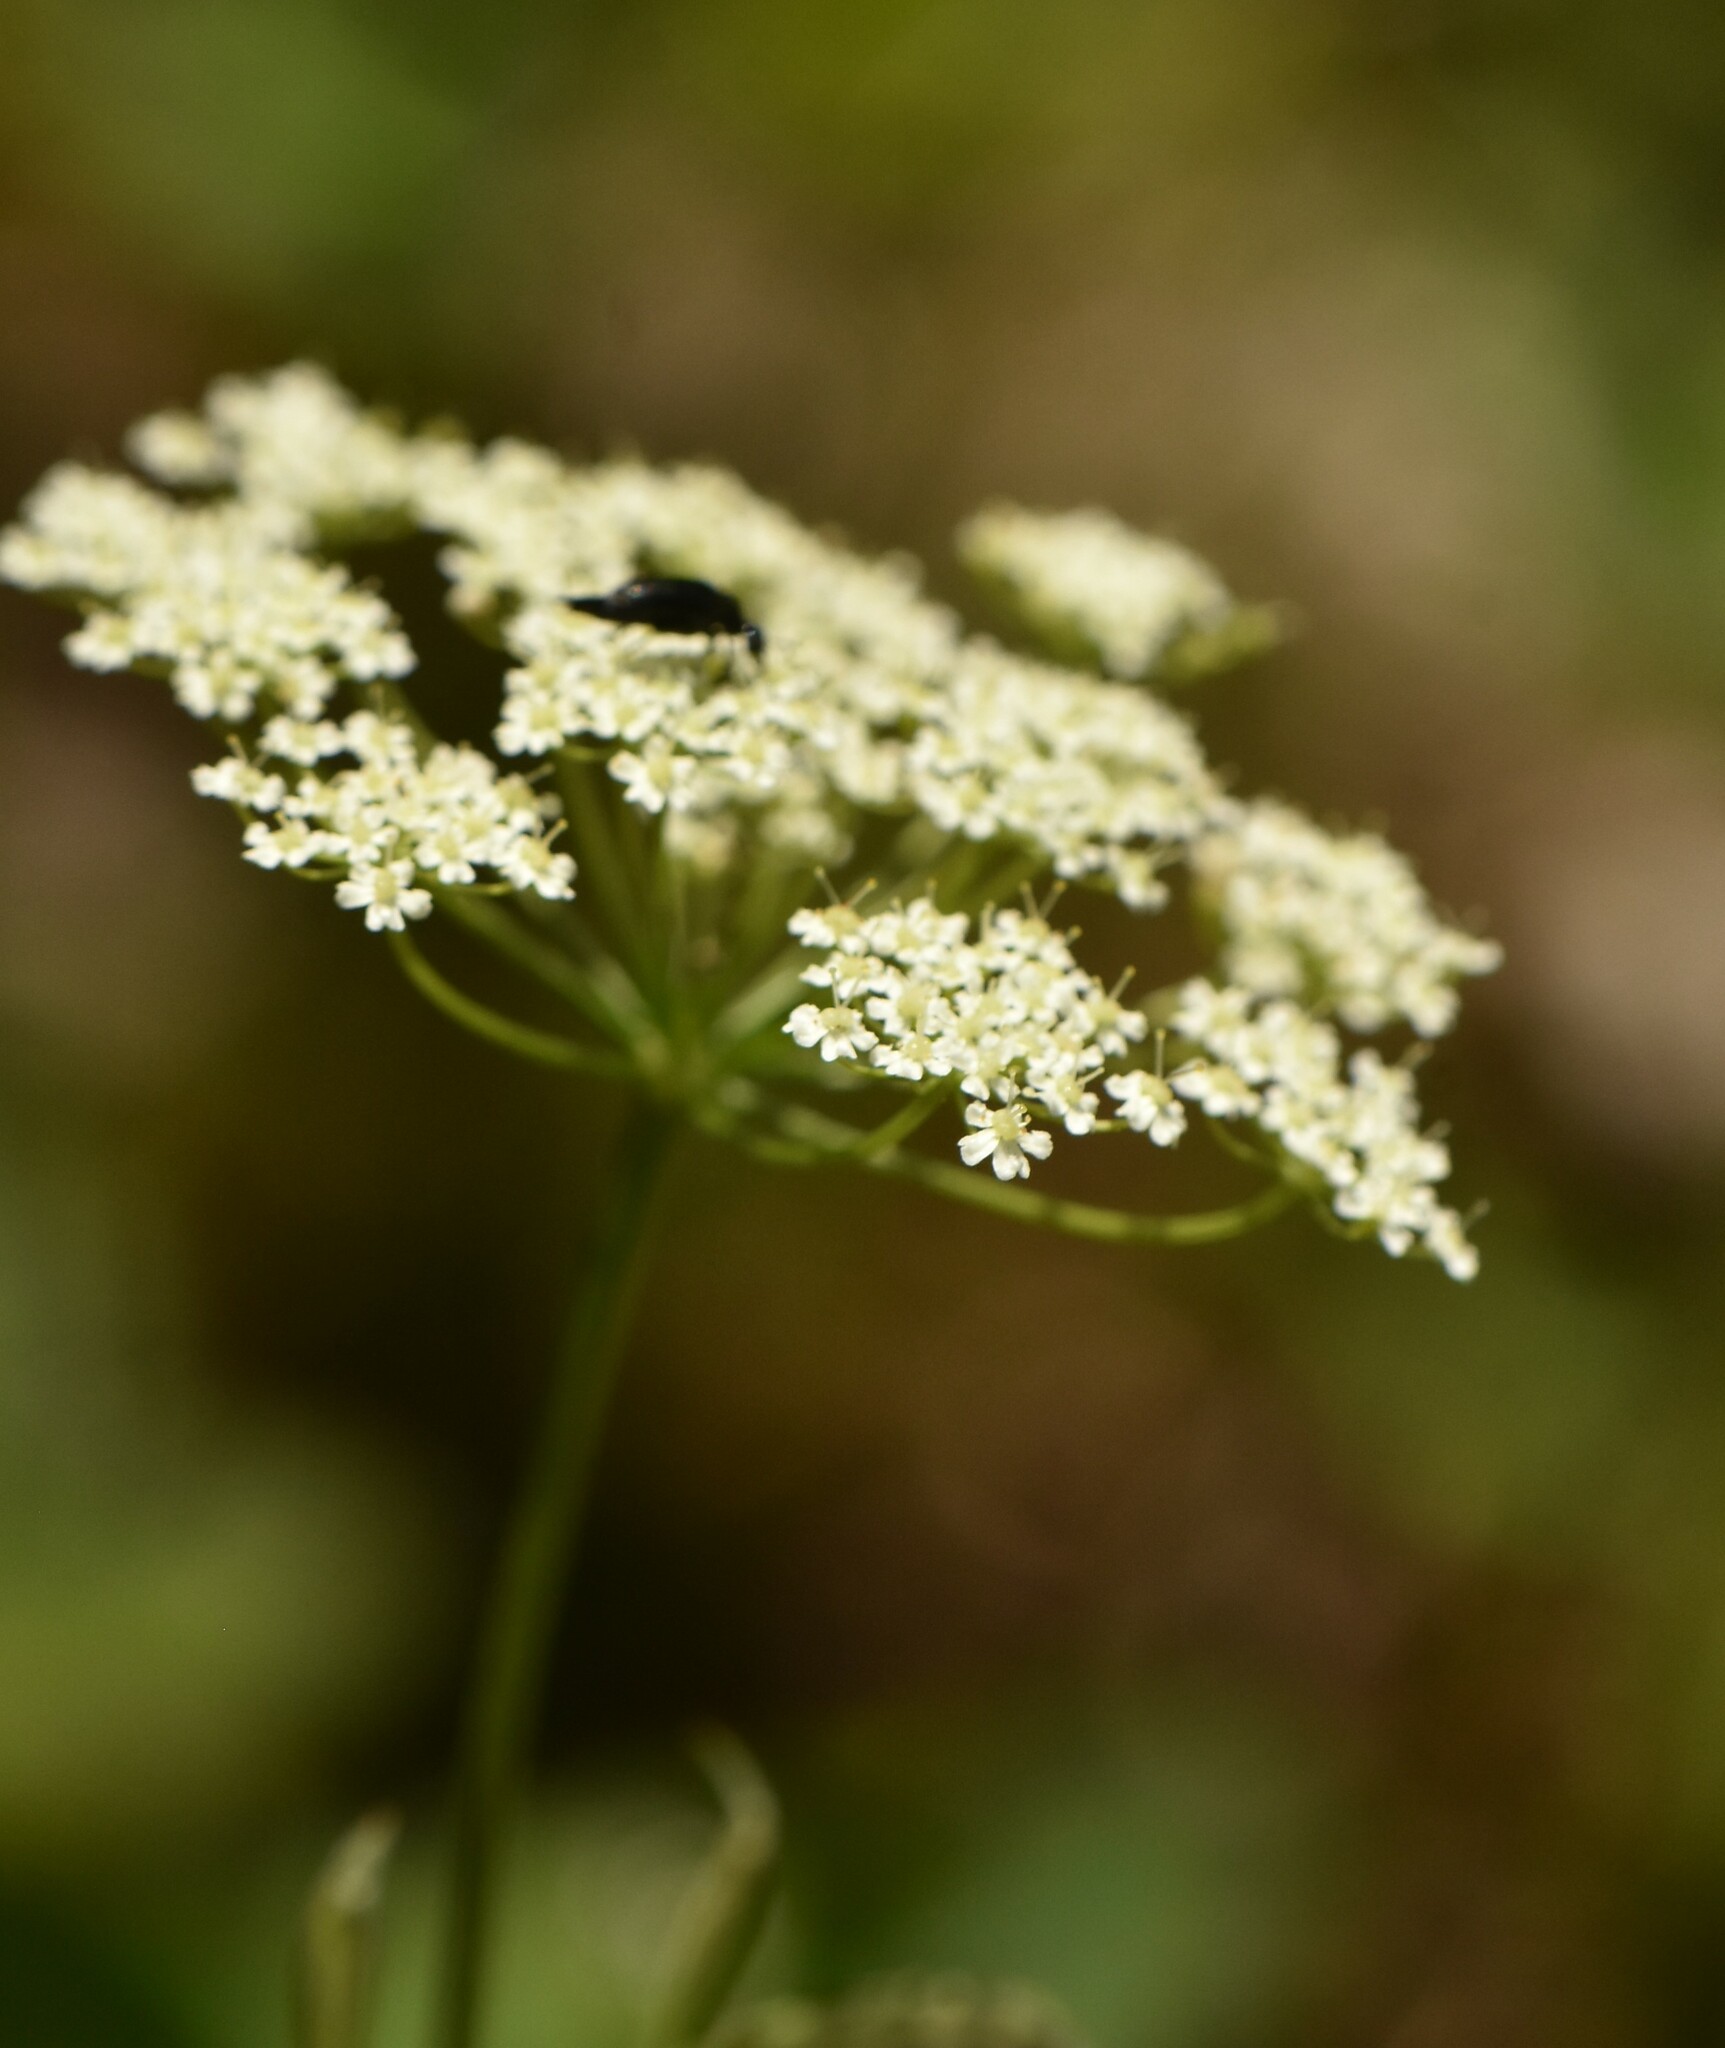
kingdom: Plantae
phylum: Tracheophyta
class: Magnoliopsida
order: Apiales
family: Apiaceae
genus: Pimpinella
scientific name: Pimpinella saxifraga
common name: Burnet-saxifrage
